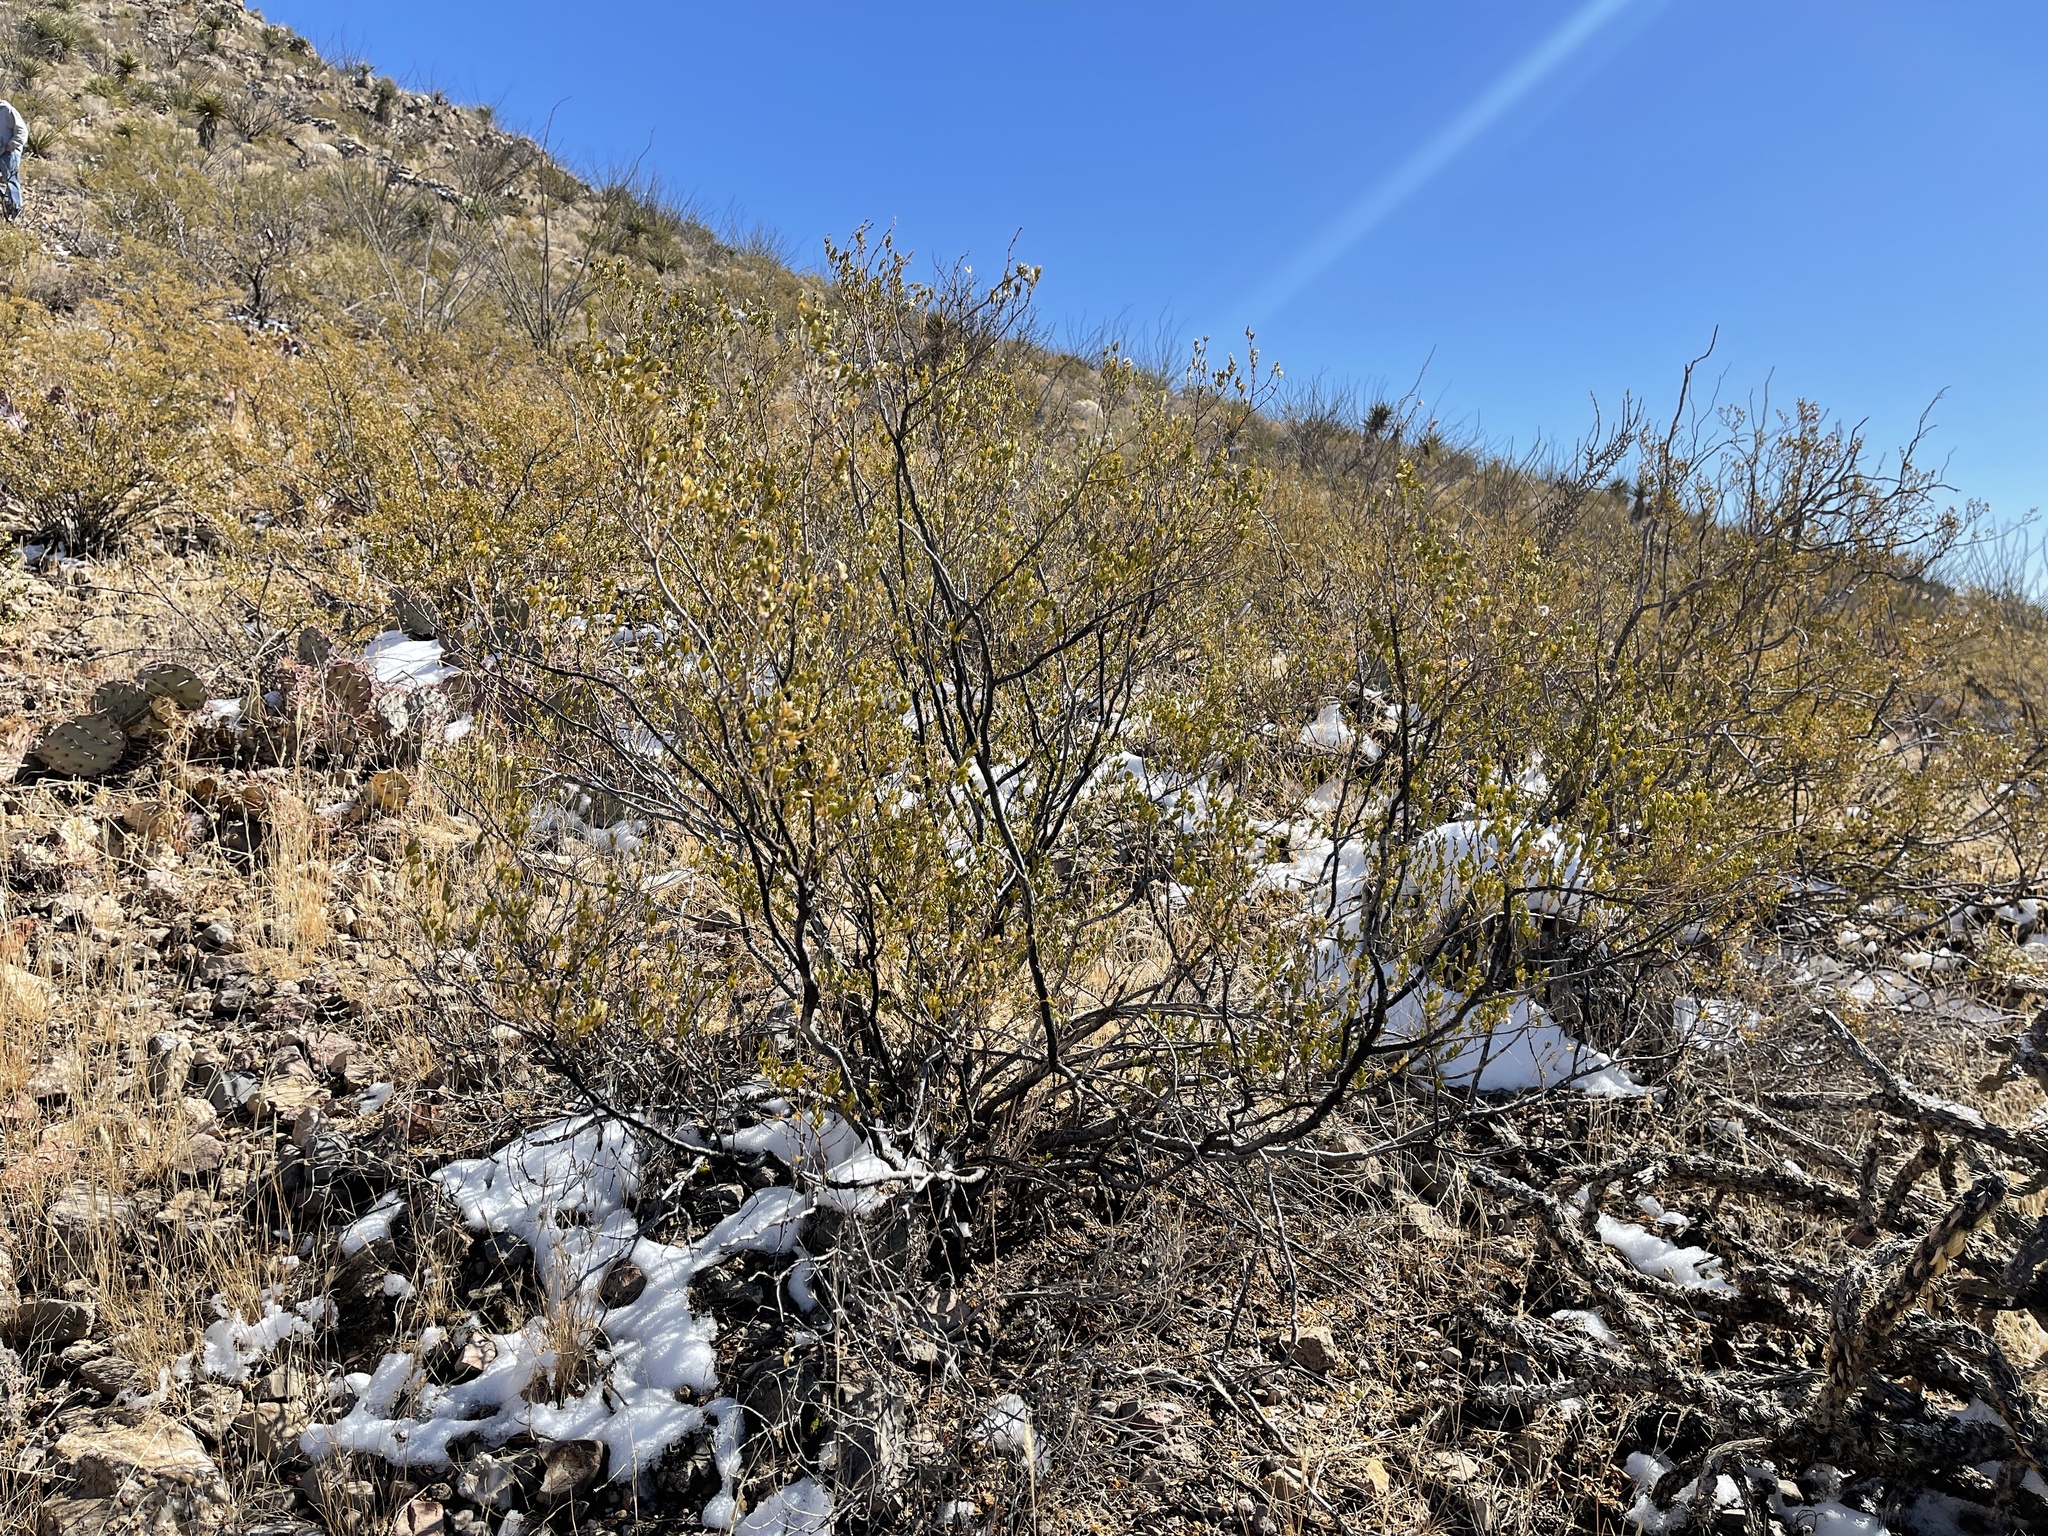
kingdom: Plantae
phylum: Tracheophyta
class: Magnoliopsida
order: Zygophyllales
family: Zygophyllaceae
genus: Larrea
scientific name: Larrea tridentata
